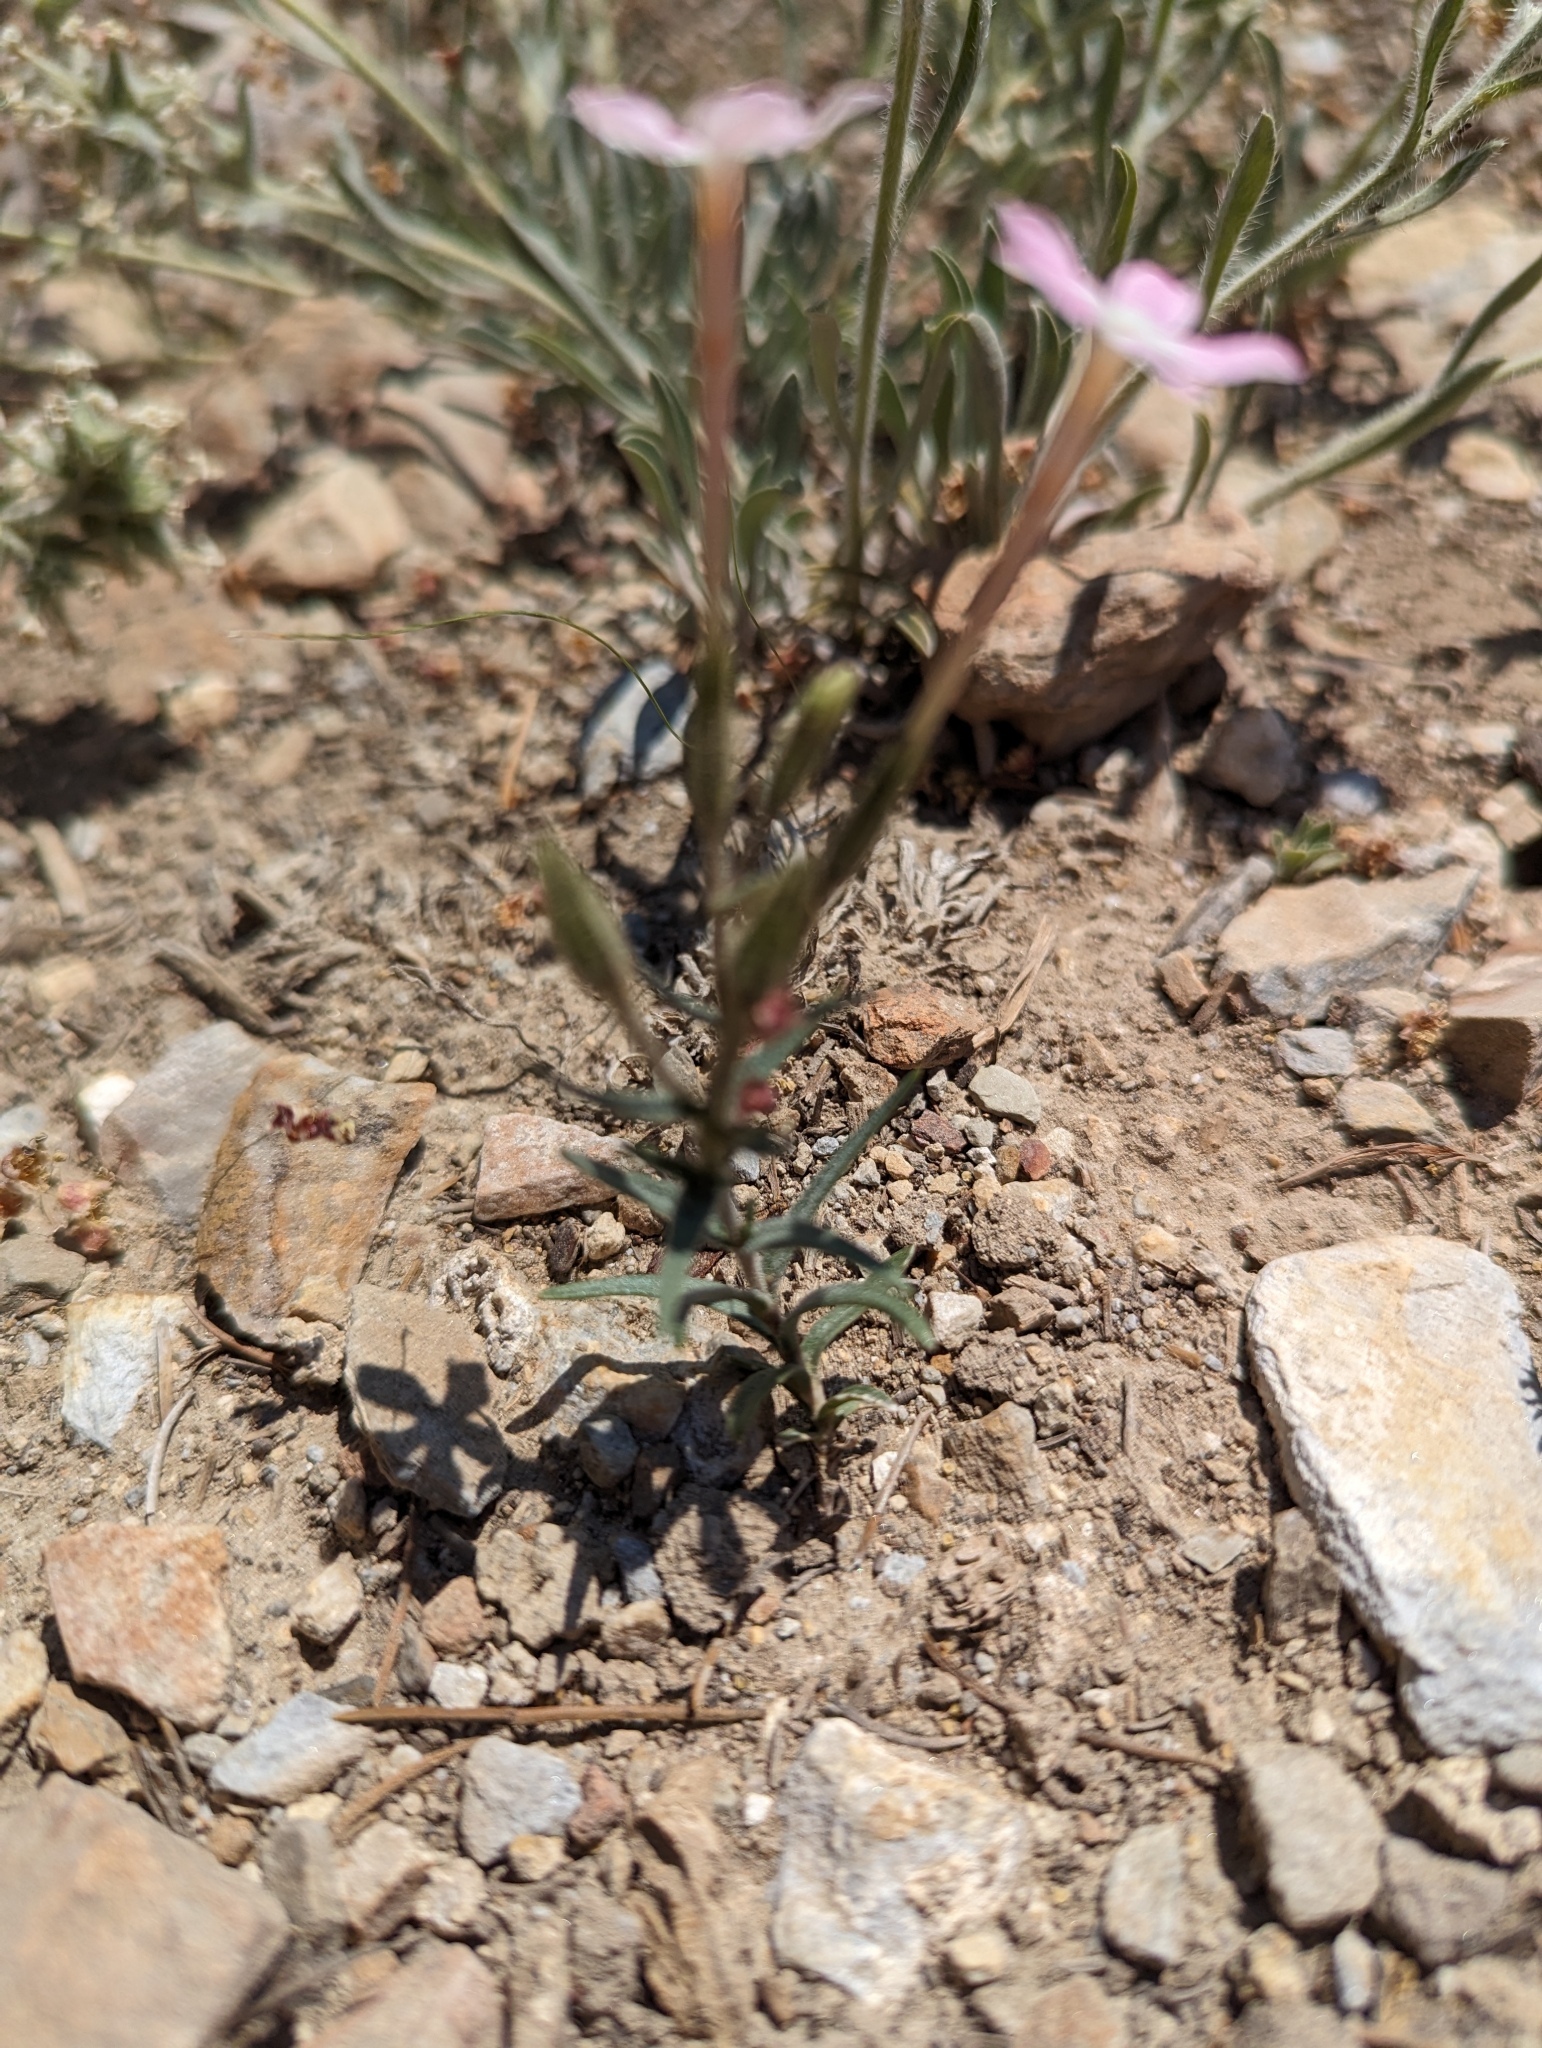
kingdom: Plantae
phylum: Tracheophyta
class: Magnoliopsida
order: Ericales
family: Polemoniaceae
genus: Phlox
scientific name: Phlox longifolia
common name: Longleaf phlox
